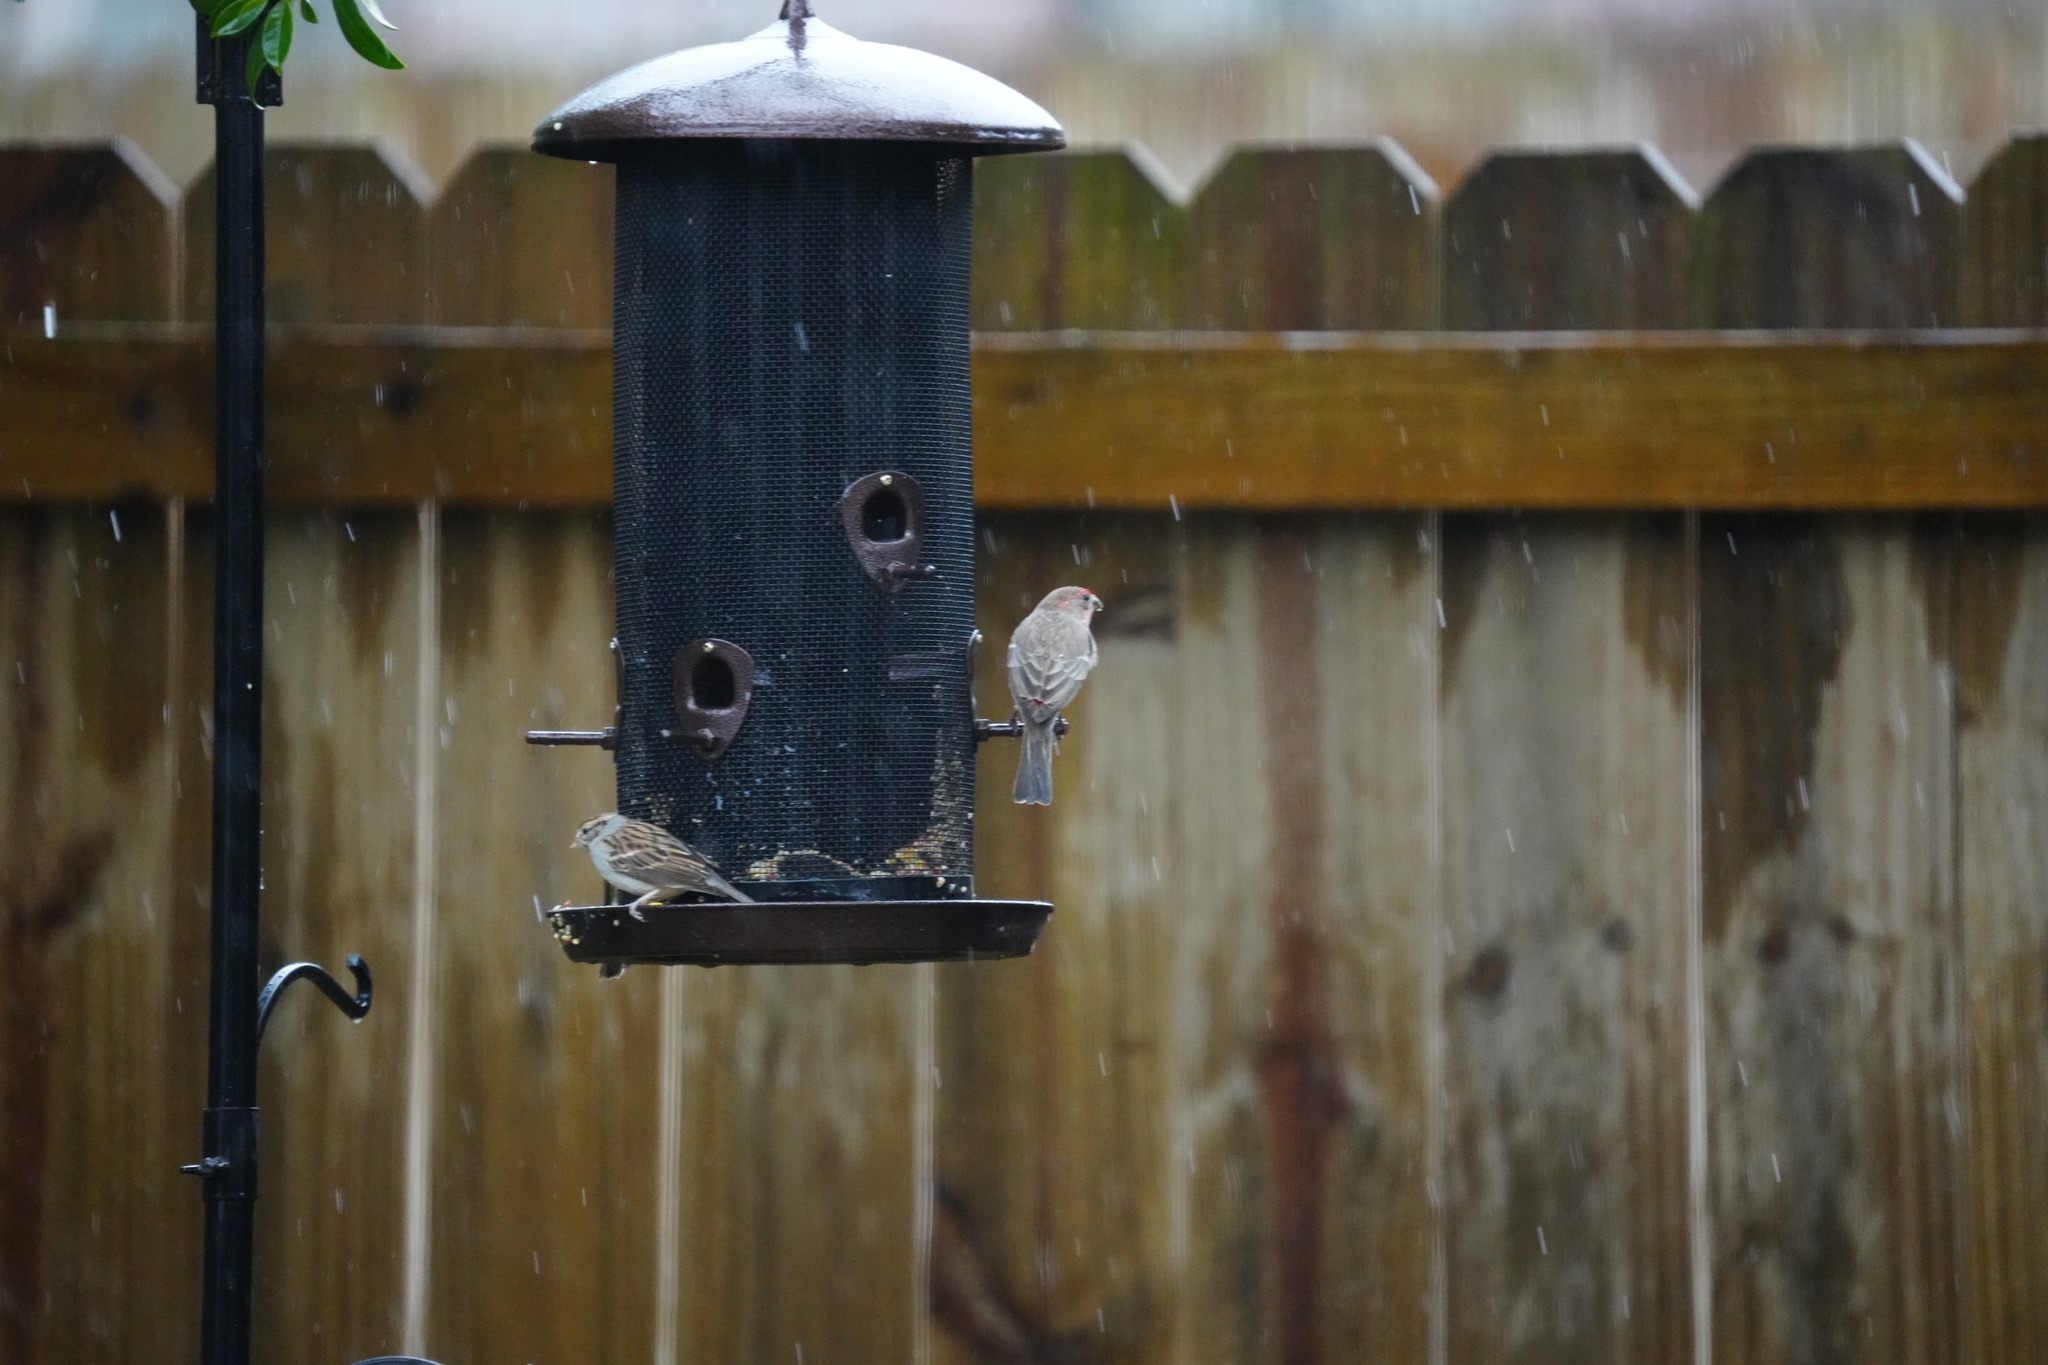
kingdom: Animalia
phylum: Chordata
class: Aves
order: Passeriformes
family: Fringillidae
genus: Haemorhous
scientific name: Haemorhous mexicanus
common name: House finch
